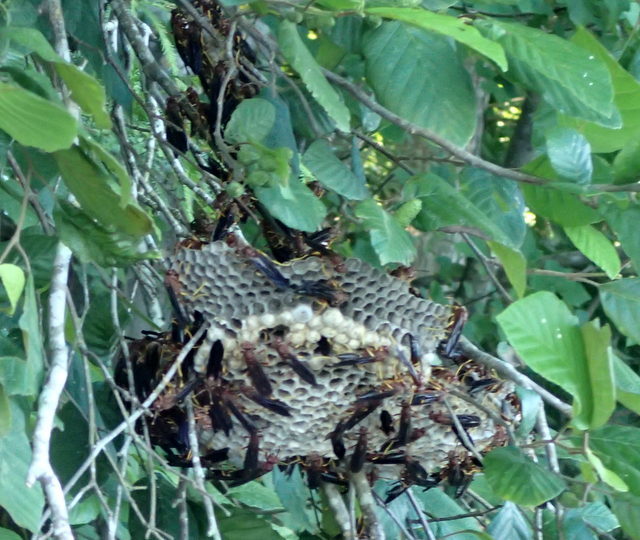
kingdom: Animalia
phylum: Arthropoda
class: Insecta
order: Hymenoptera
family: Eumenidae
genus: Polistes
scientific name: Polistes annularis
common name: Ringed paper wasp
